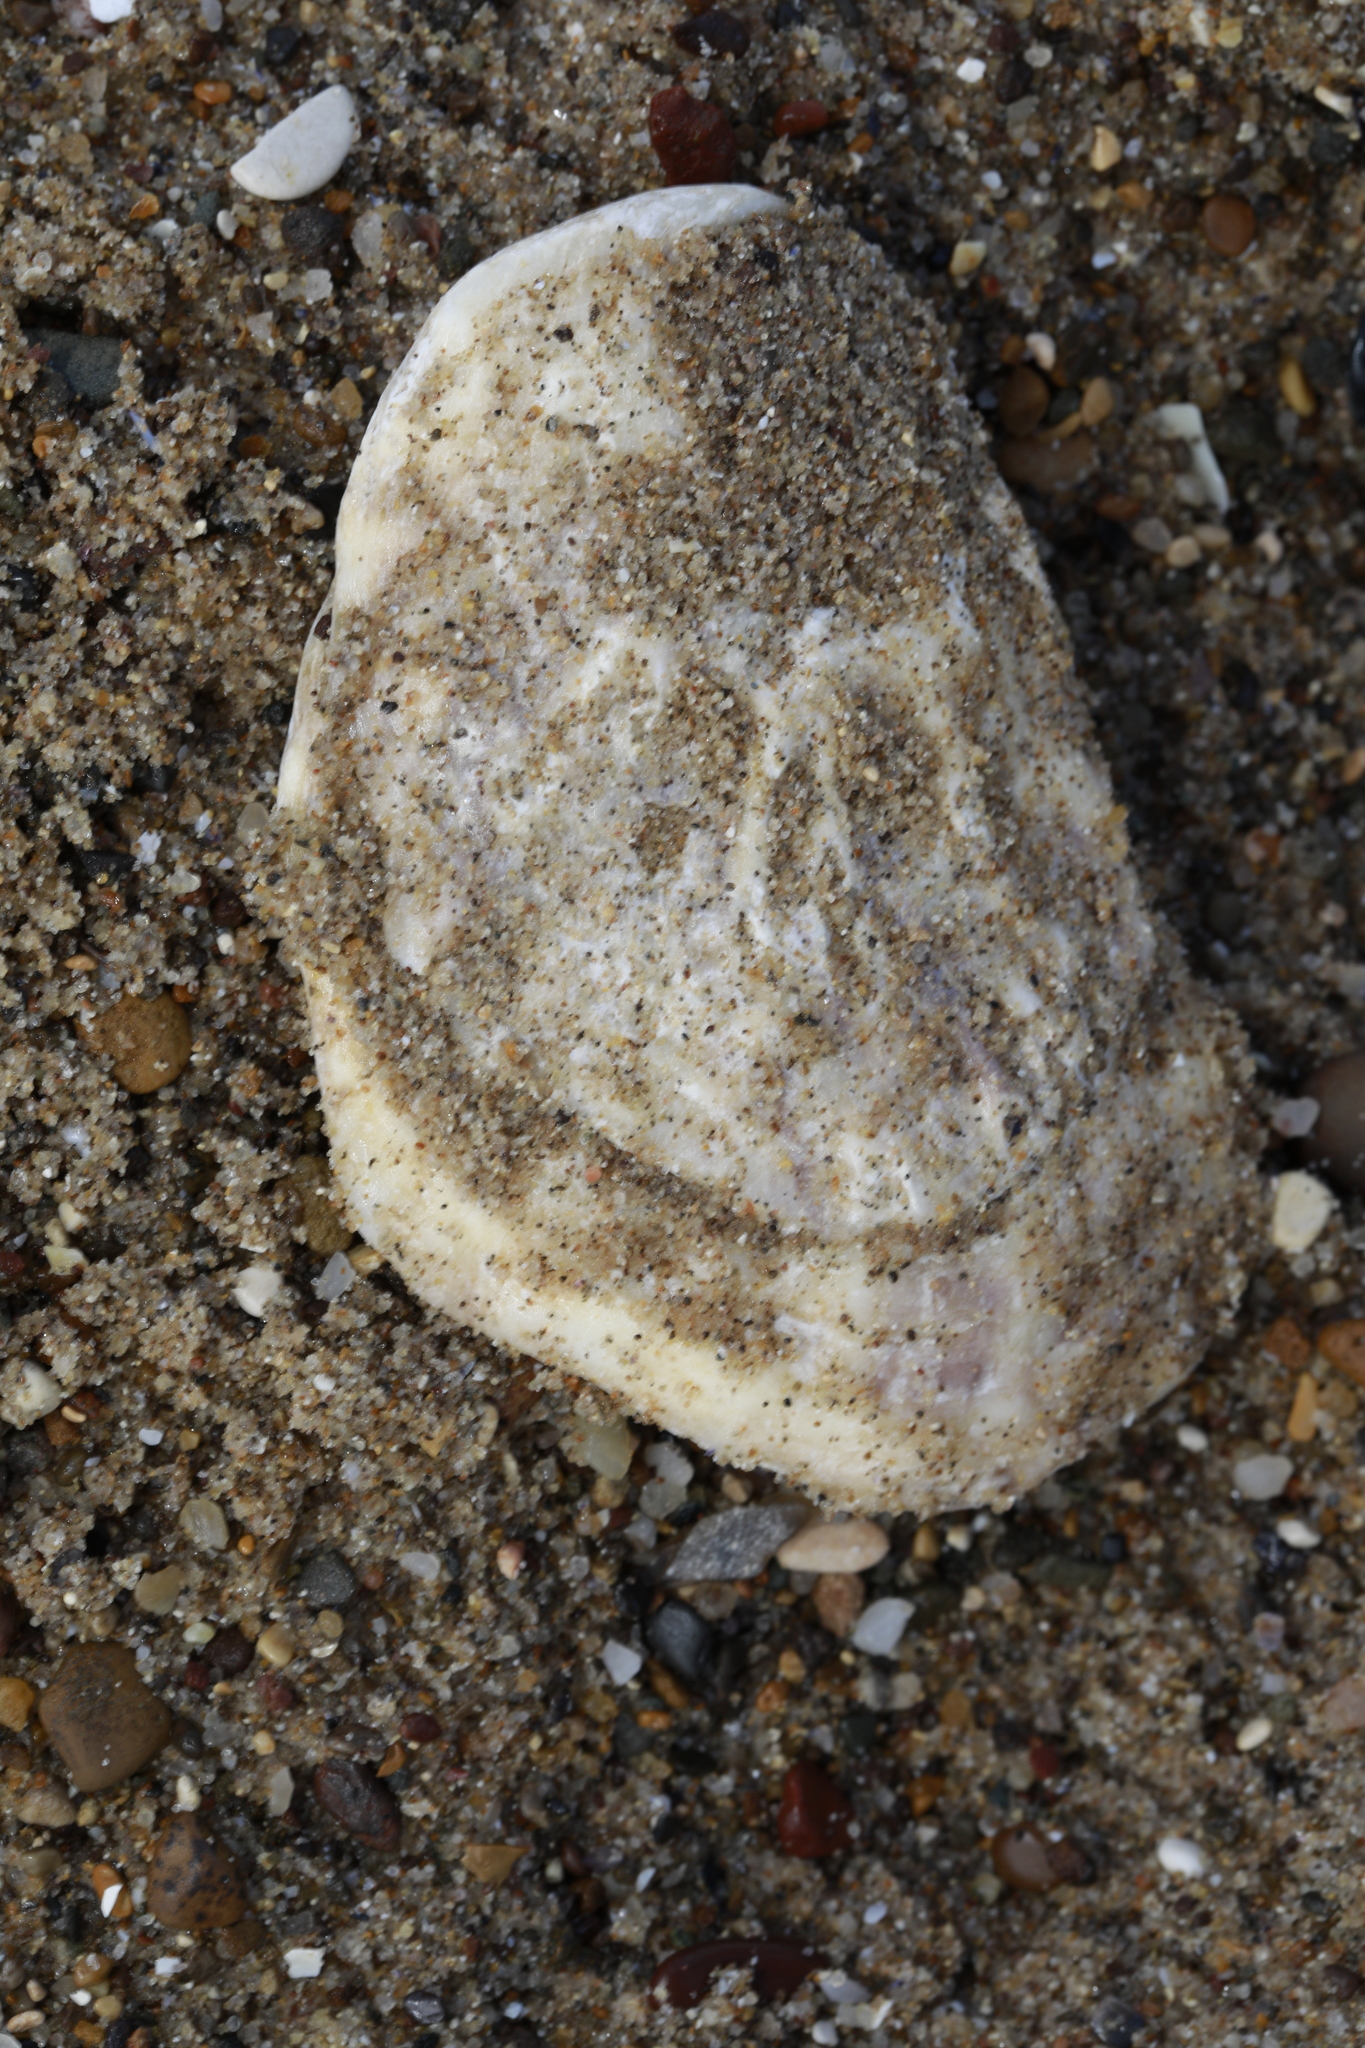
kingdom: Animalia
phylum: Mollusca
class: Bivalvia
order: Ostreida
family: Ostreidae
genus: Ostrea
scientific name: Ostrea edulis
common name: Flat oyster
